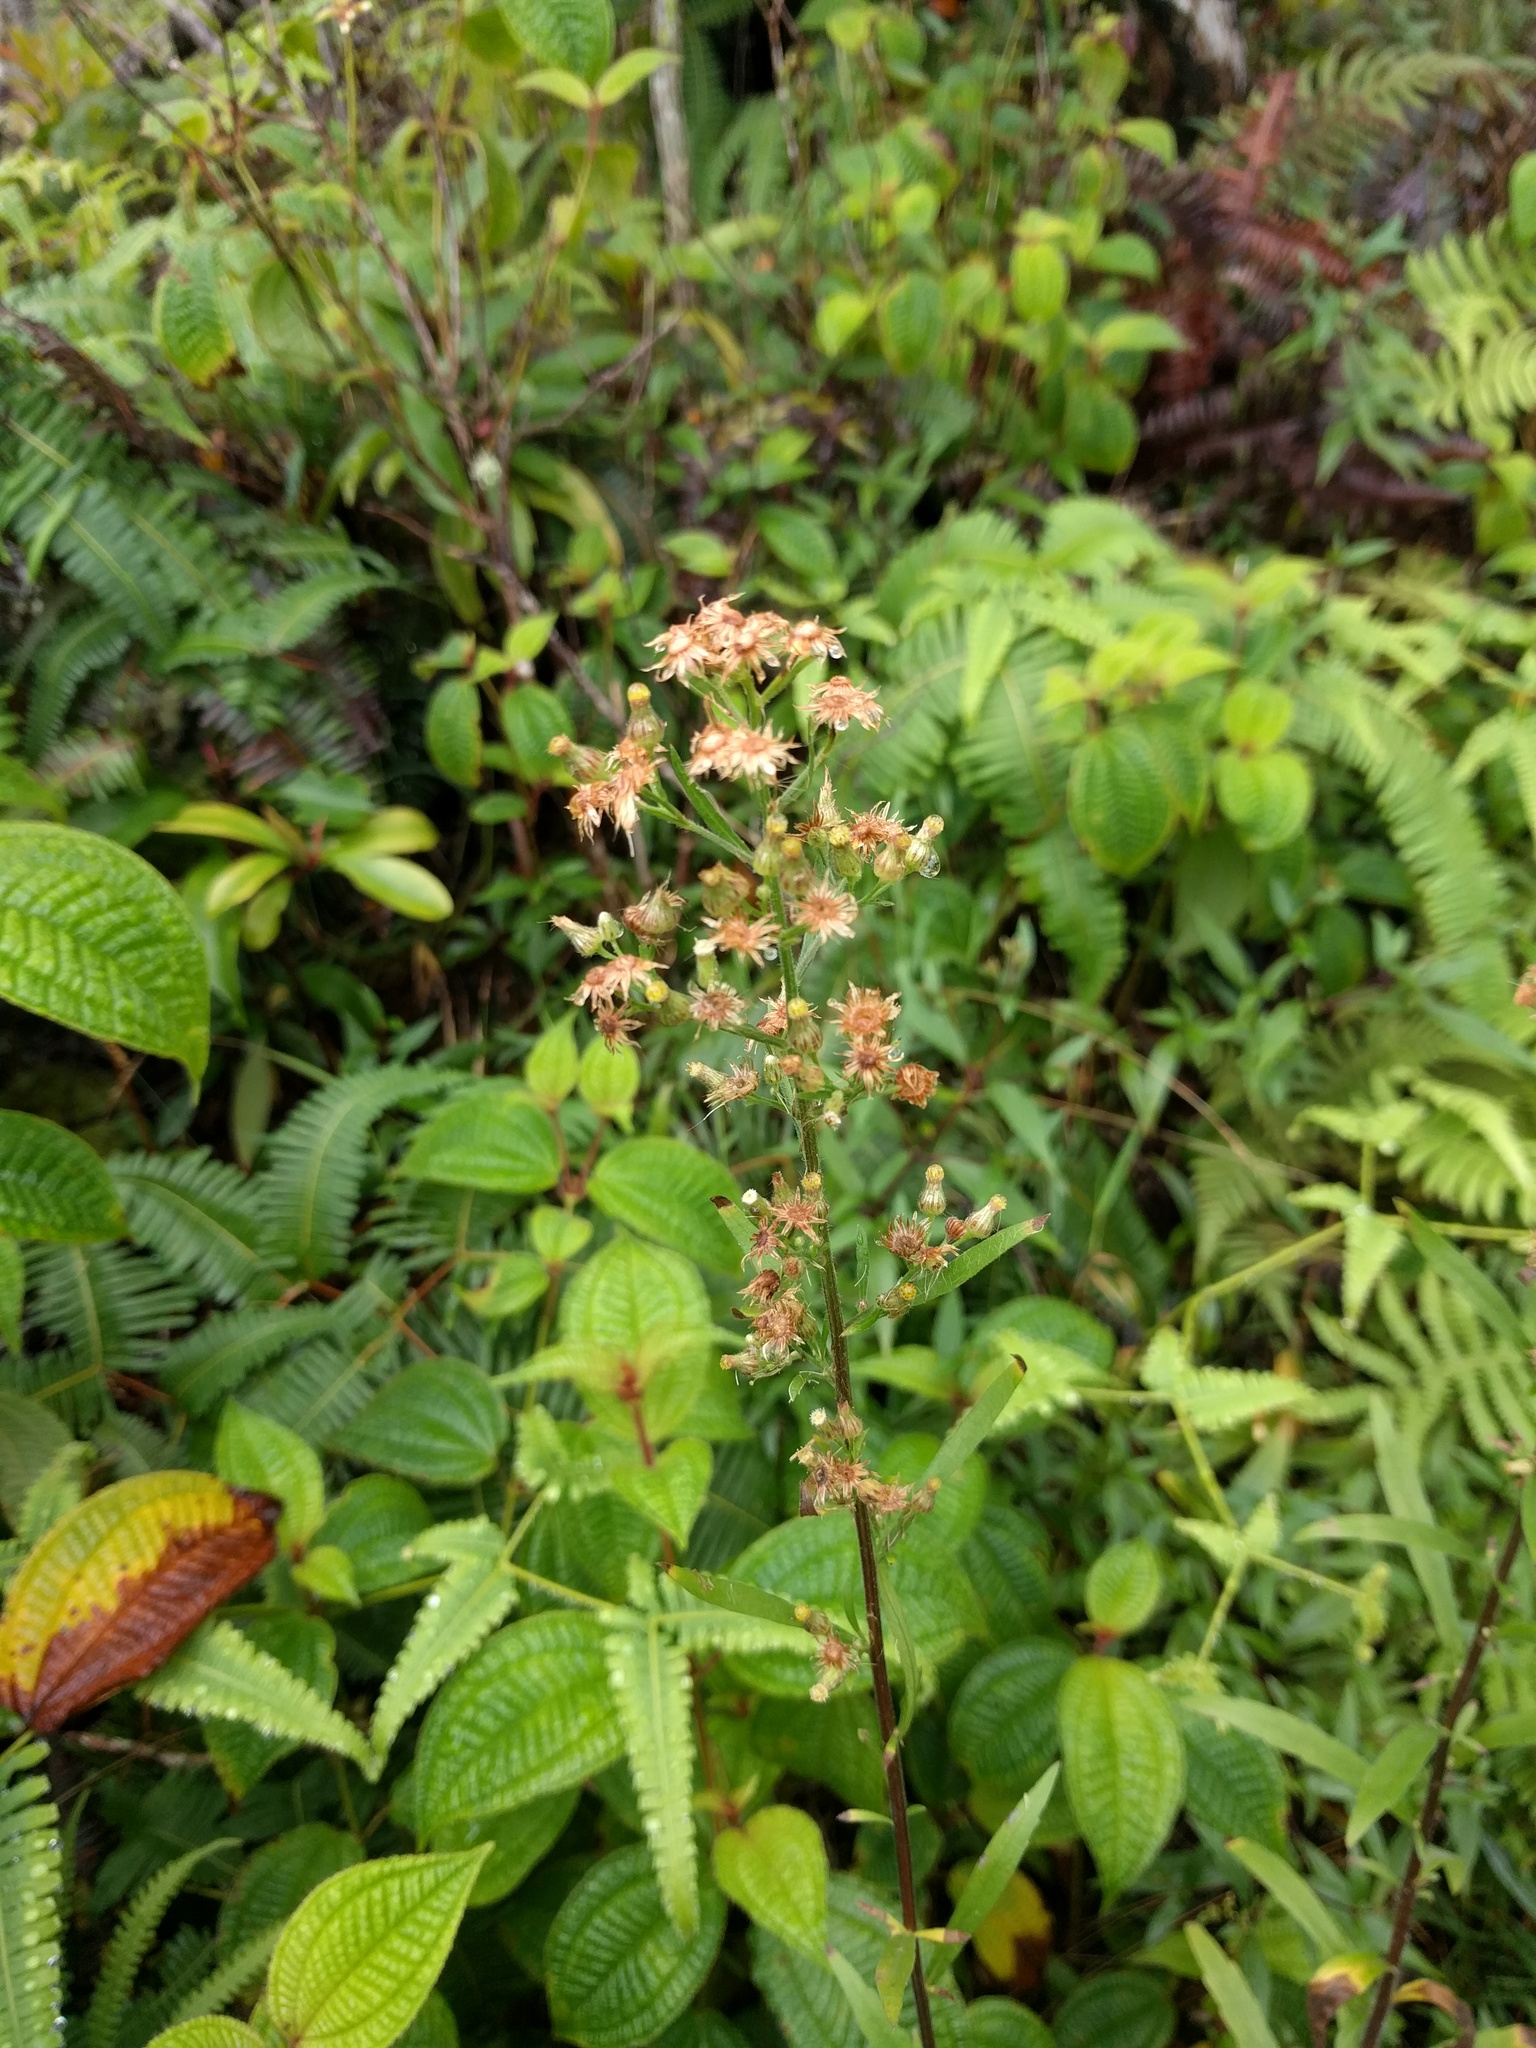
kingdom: Plantae
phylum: Tracheophyta
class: Magnoliopsida
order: Asterales
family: Asteraceae
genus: Erigeron
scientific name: Erigeron sumatrensis
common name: Daisy
